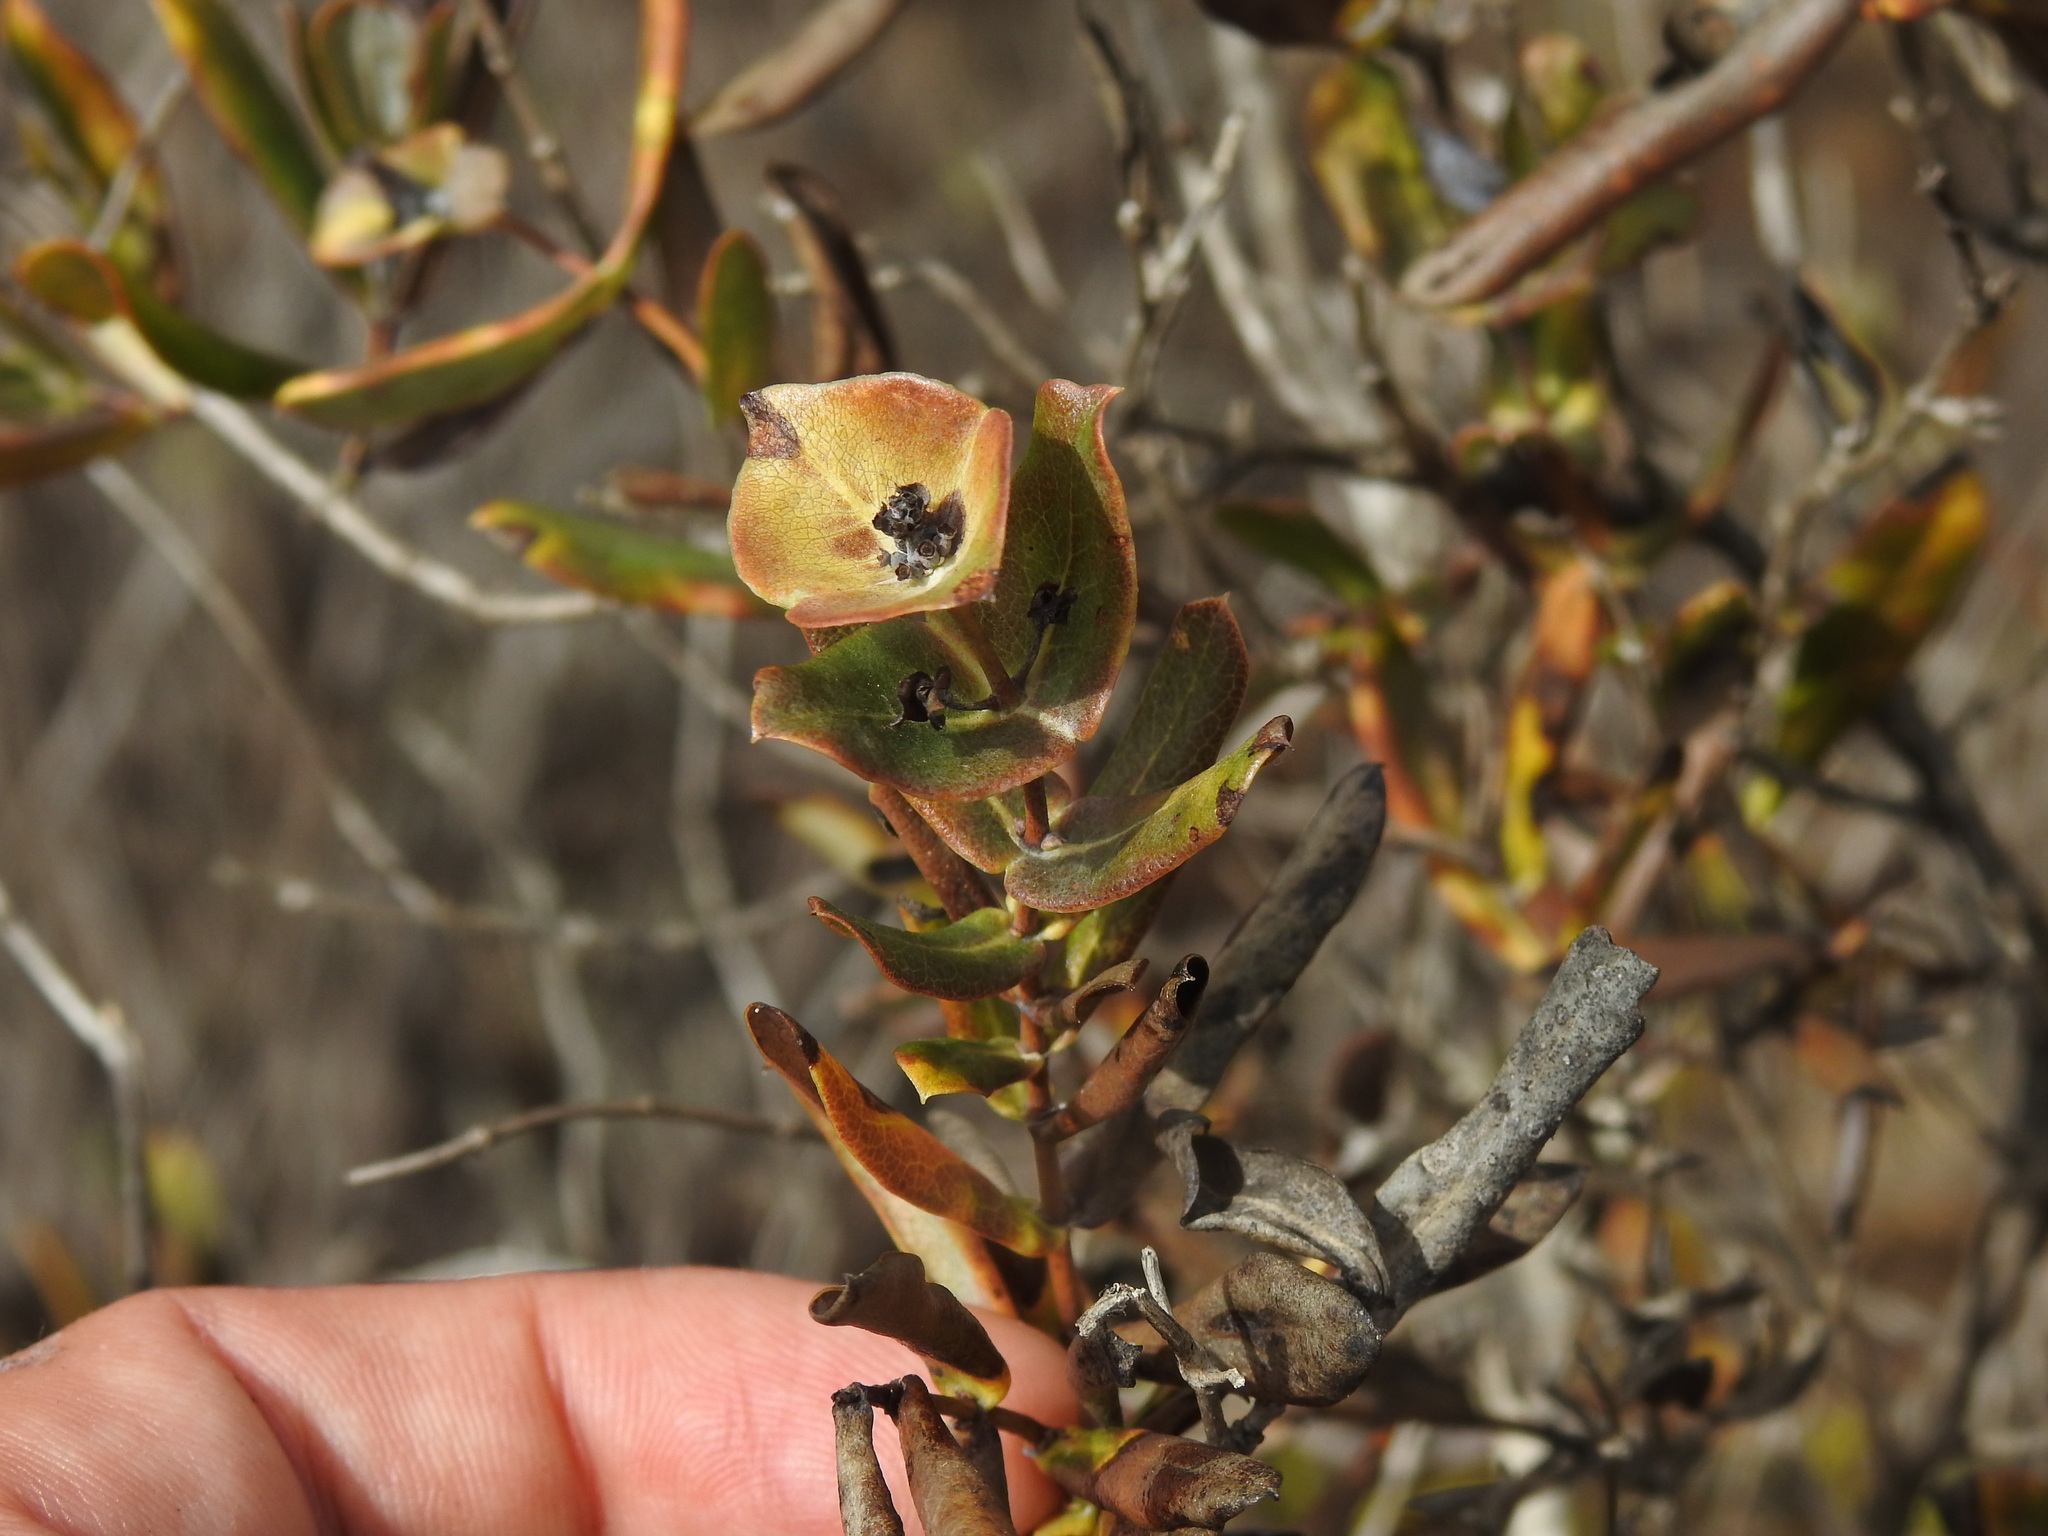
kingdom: Plantae
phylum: Tracheophyta
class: Magnoliopsida
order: Dipsacales
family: Caprifoliaceae
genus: Lonicera
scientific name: Lonicera implexa
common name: Minorca honeysuckle
